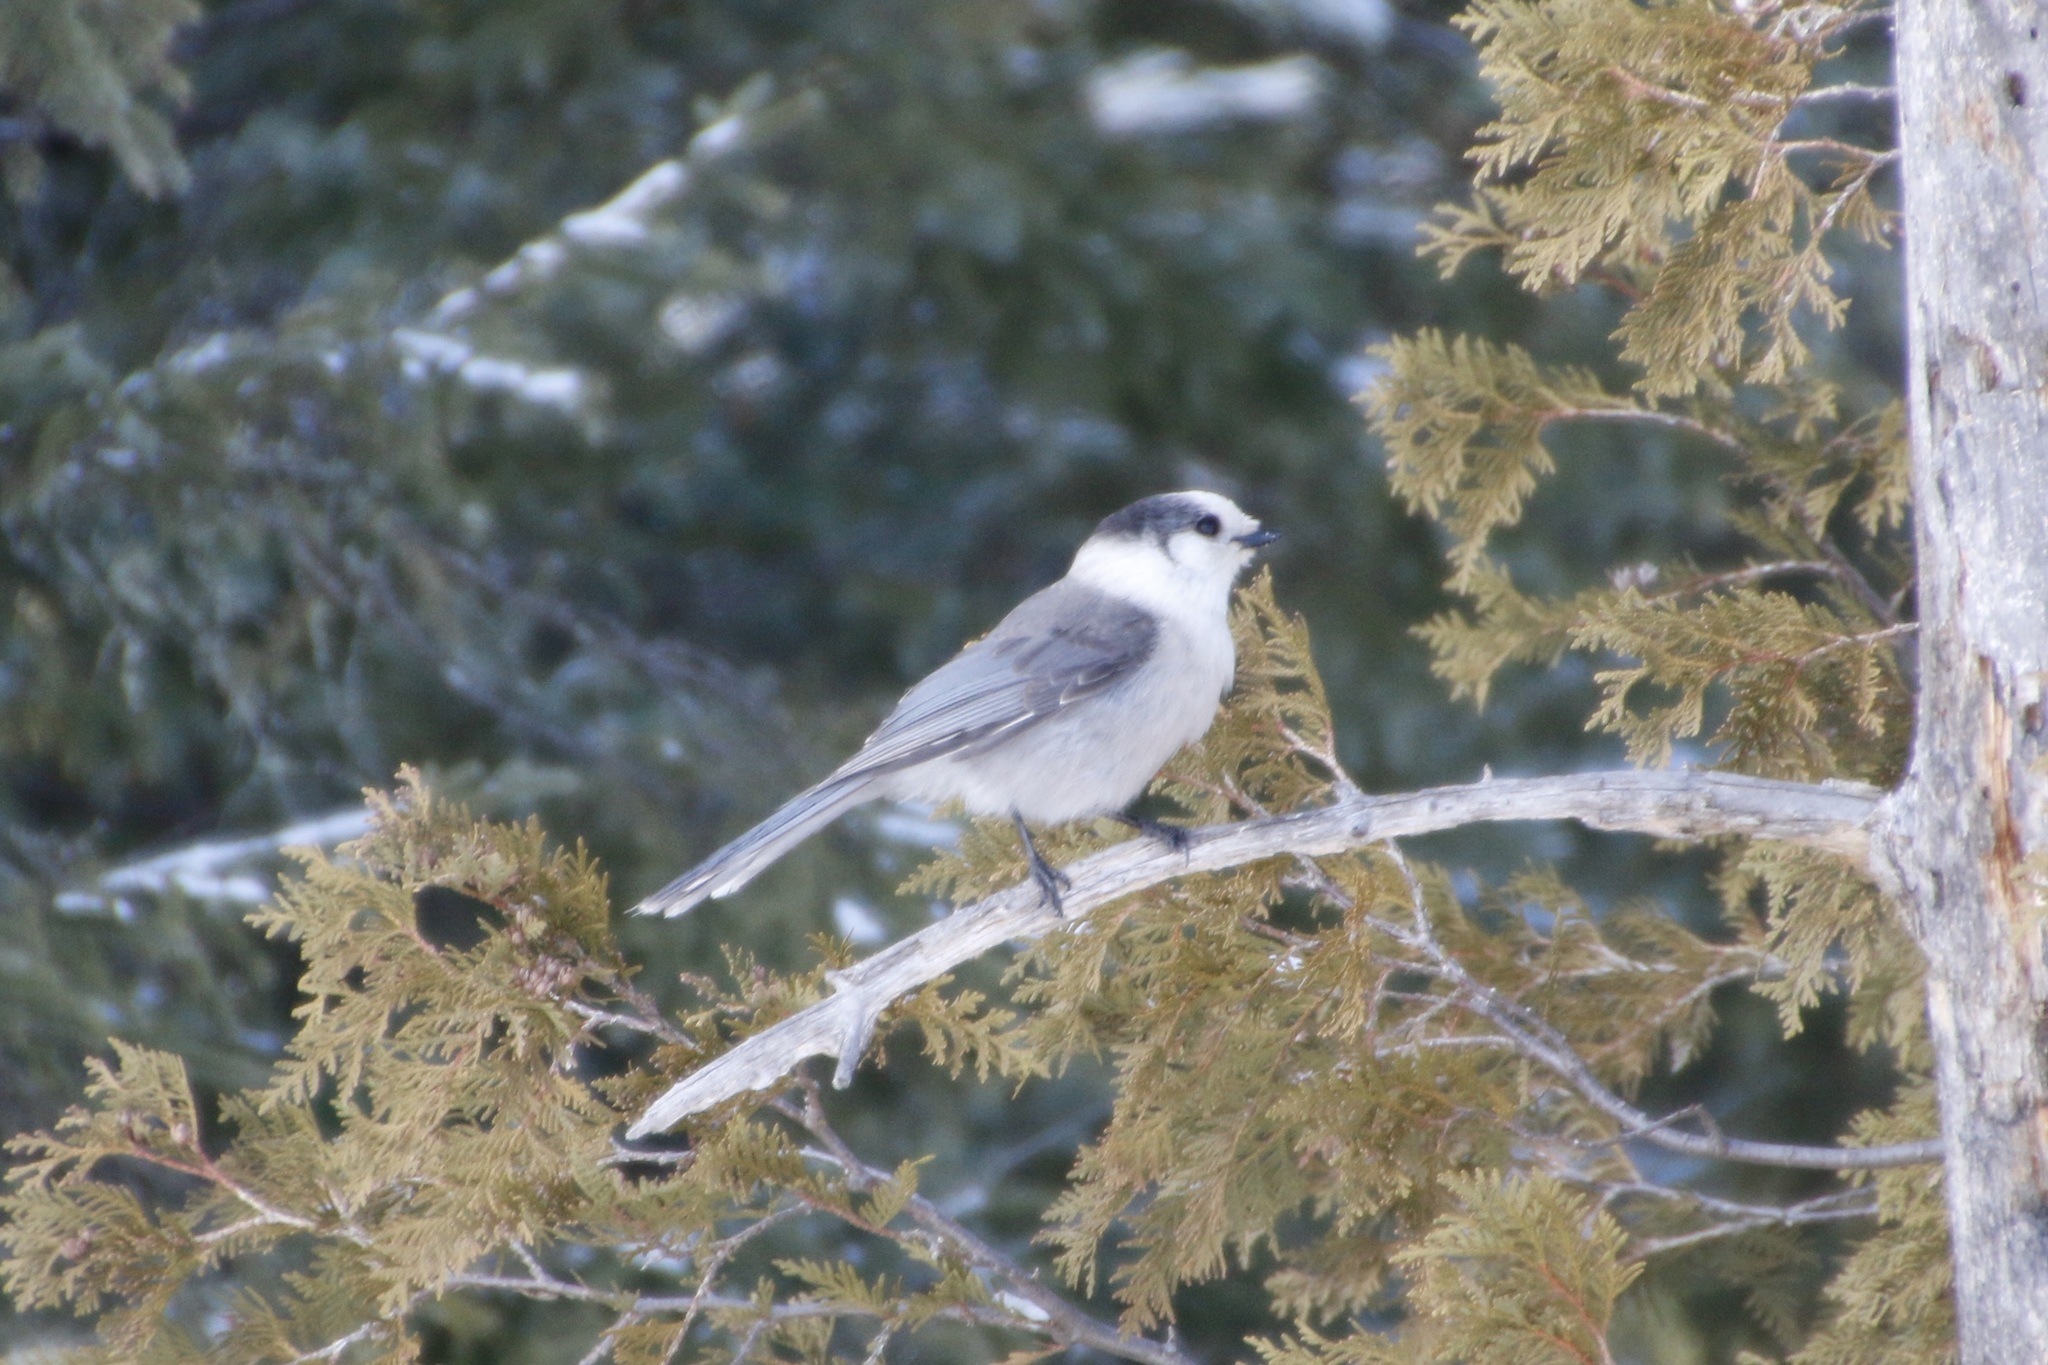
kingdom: Animalia
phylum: Chordata
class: Aves
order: Passeriformes
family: Corvidae
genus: Perisoreus
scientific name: Perisoreus canadensis
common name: Gray jay
